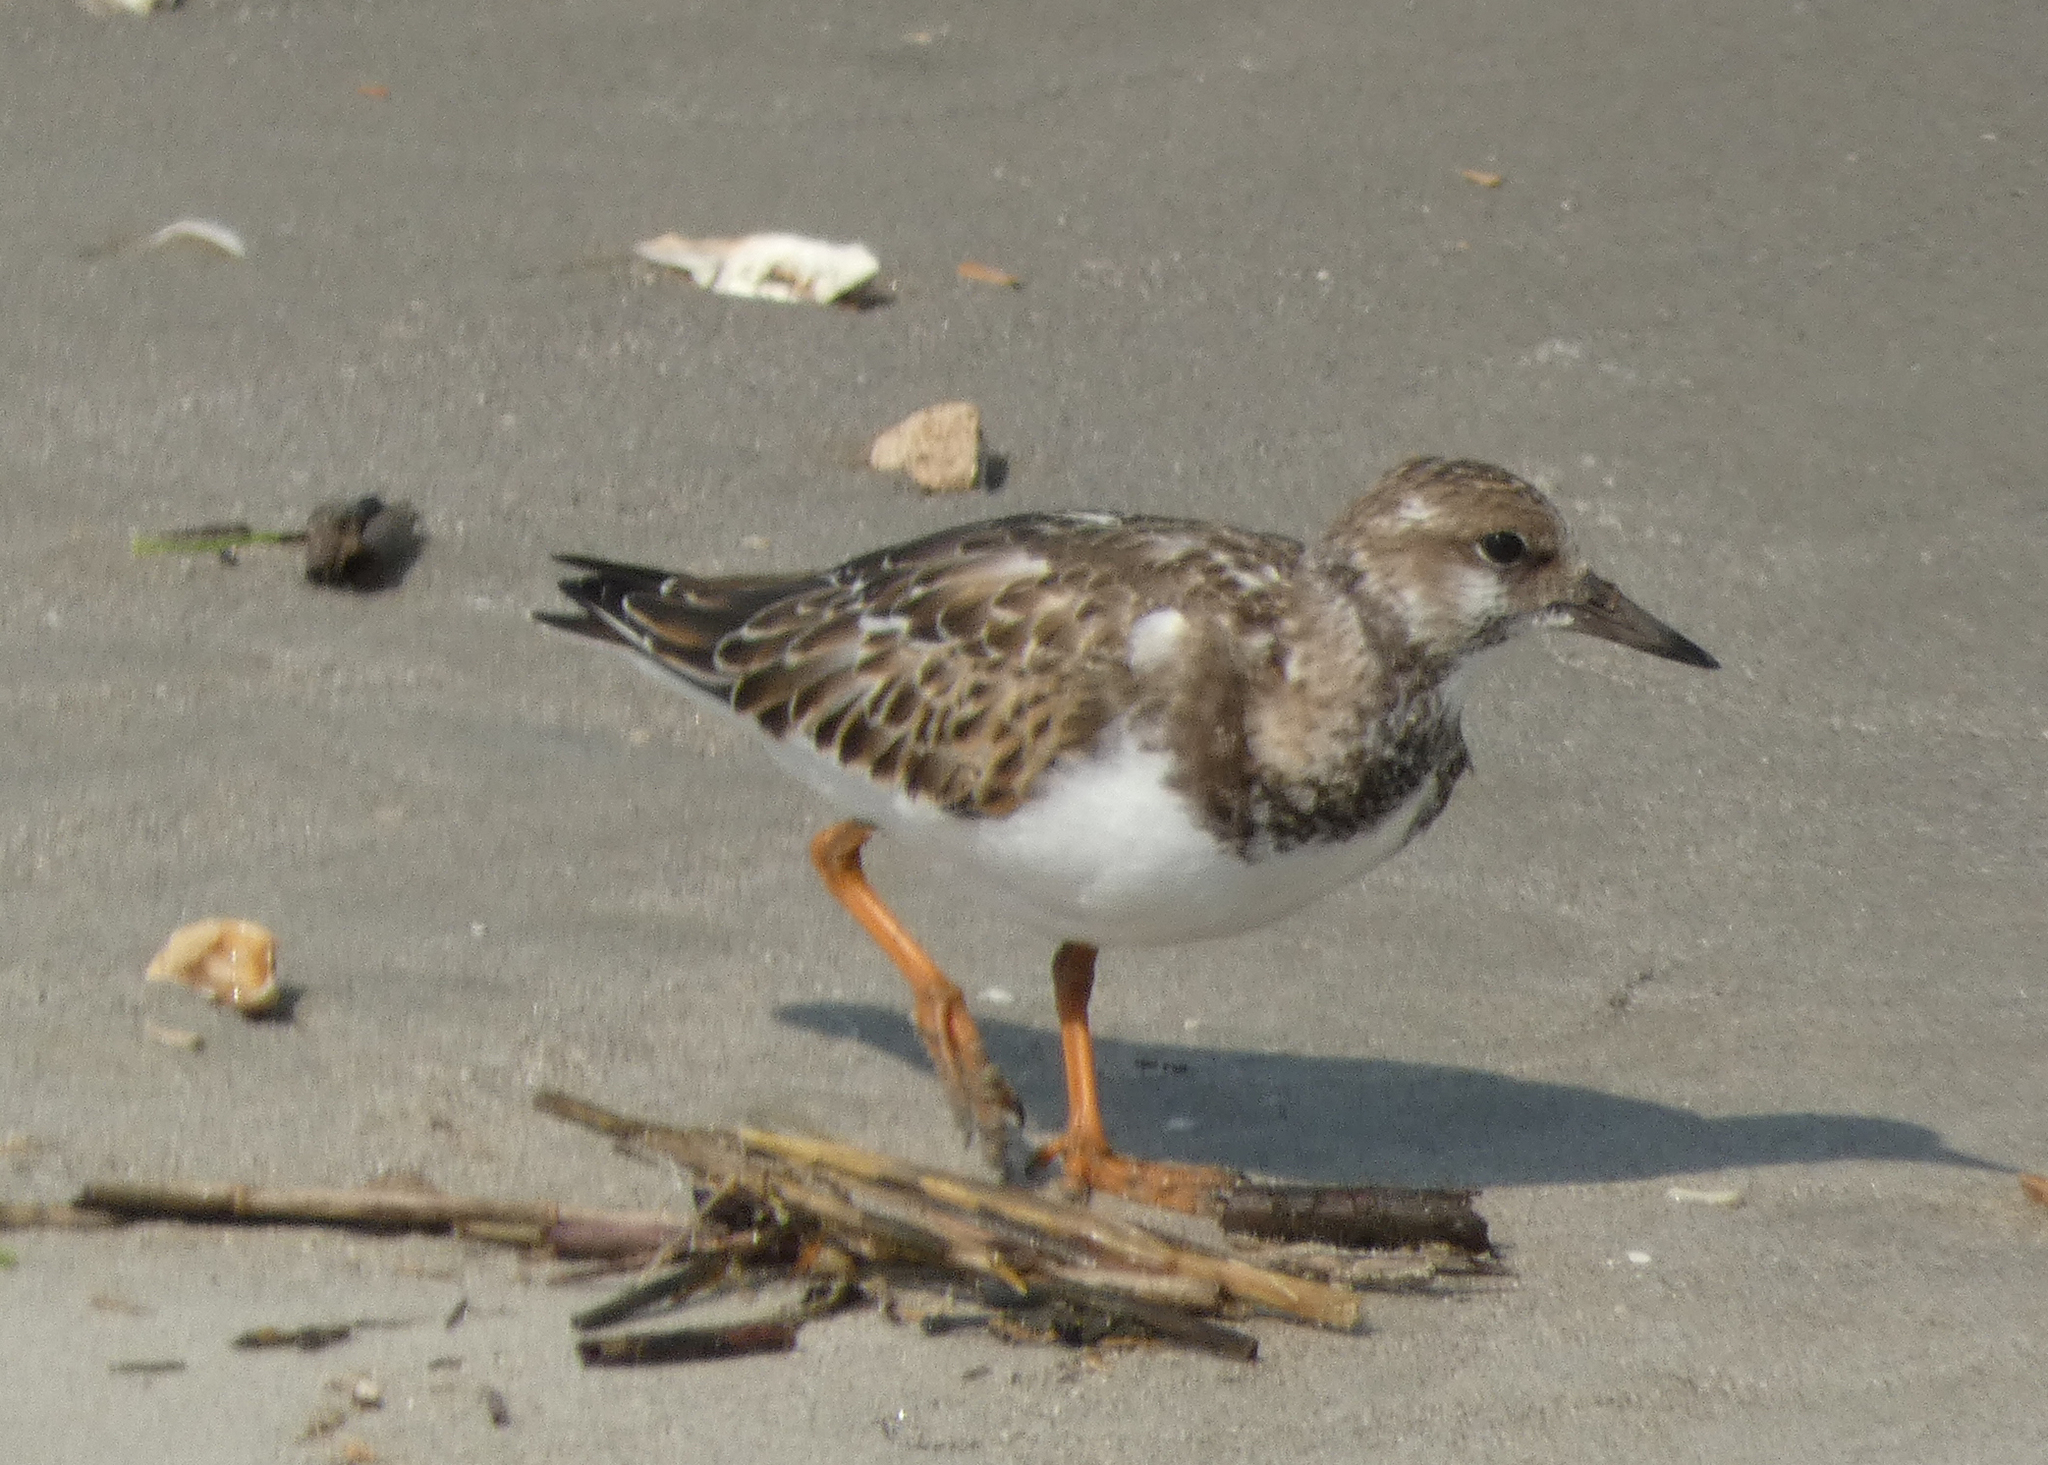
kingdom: Animalia
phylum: Chordata
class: Aves
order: Charadriiformes
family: Scolopacidae
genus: Arenaria
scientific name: Arenaria interpres
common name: Ruddy turnstone
